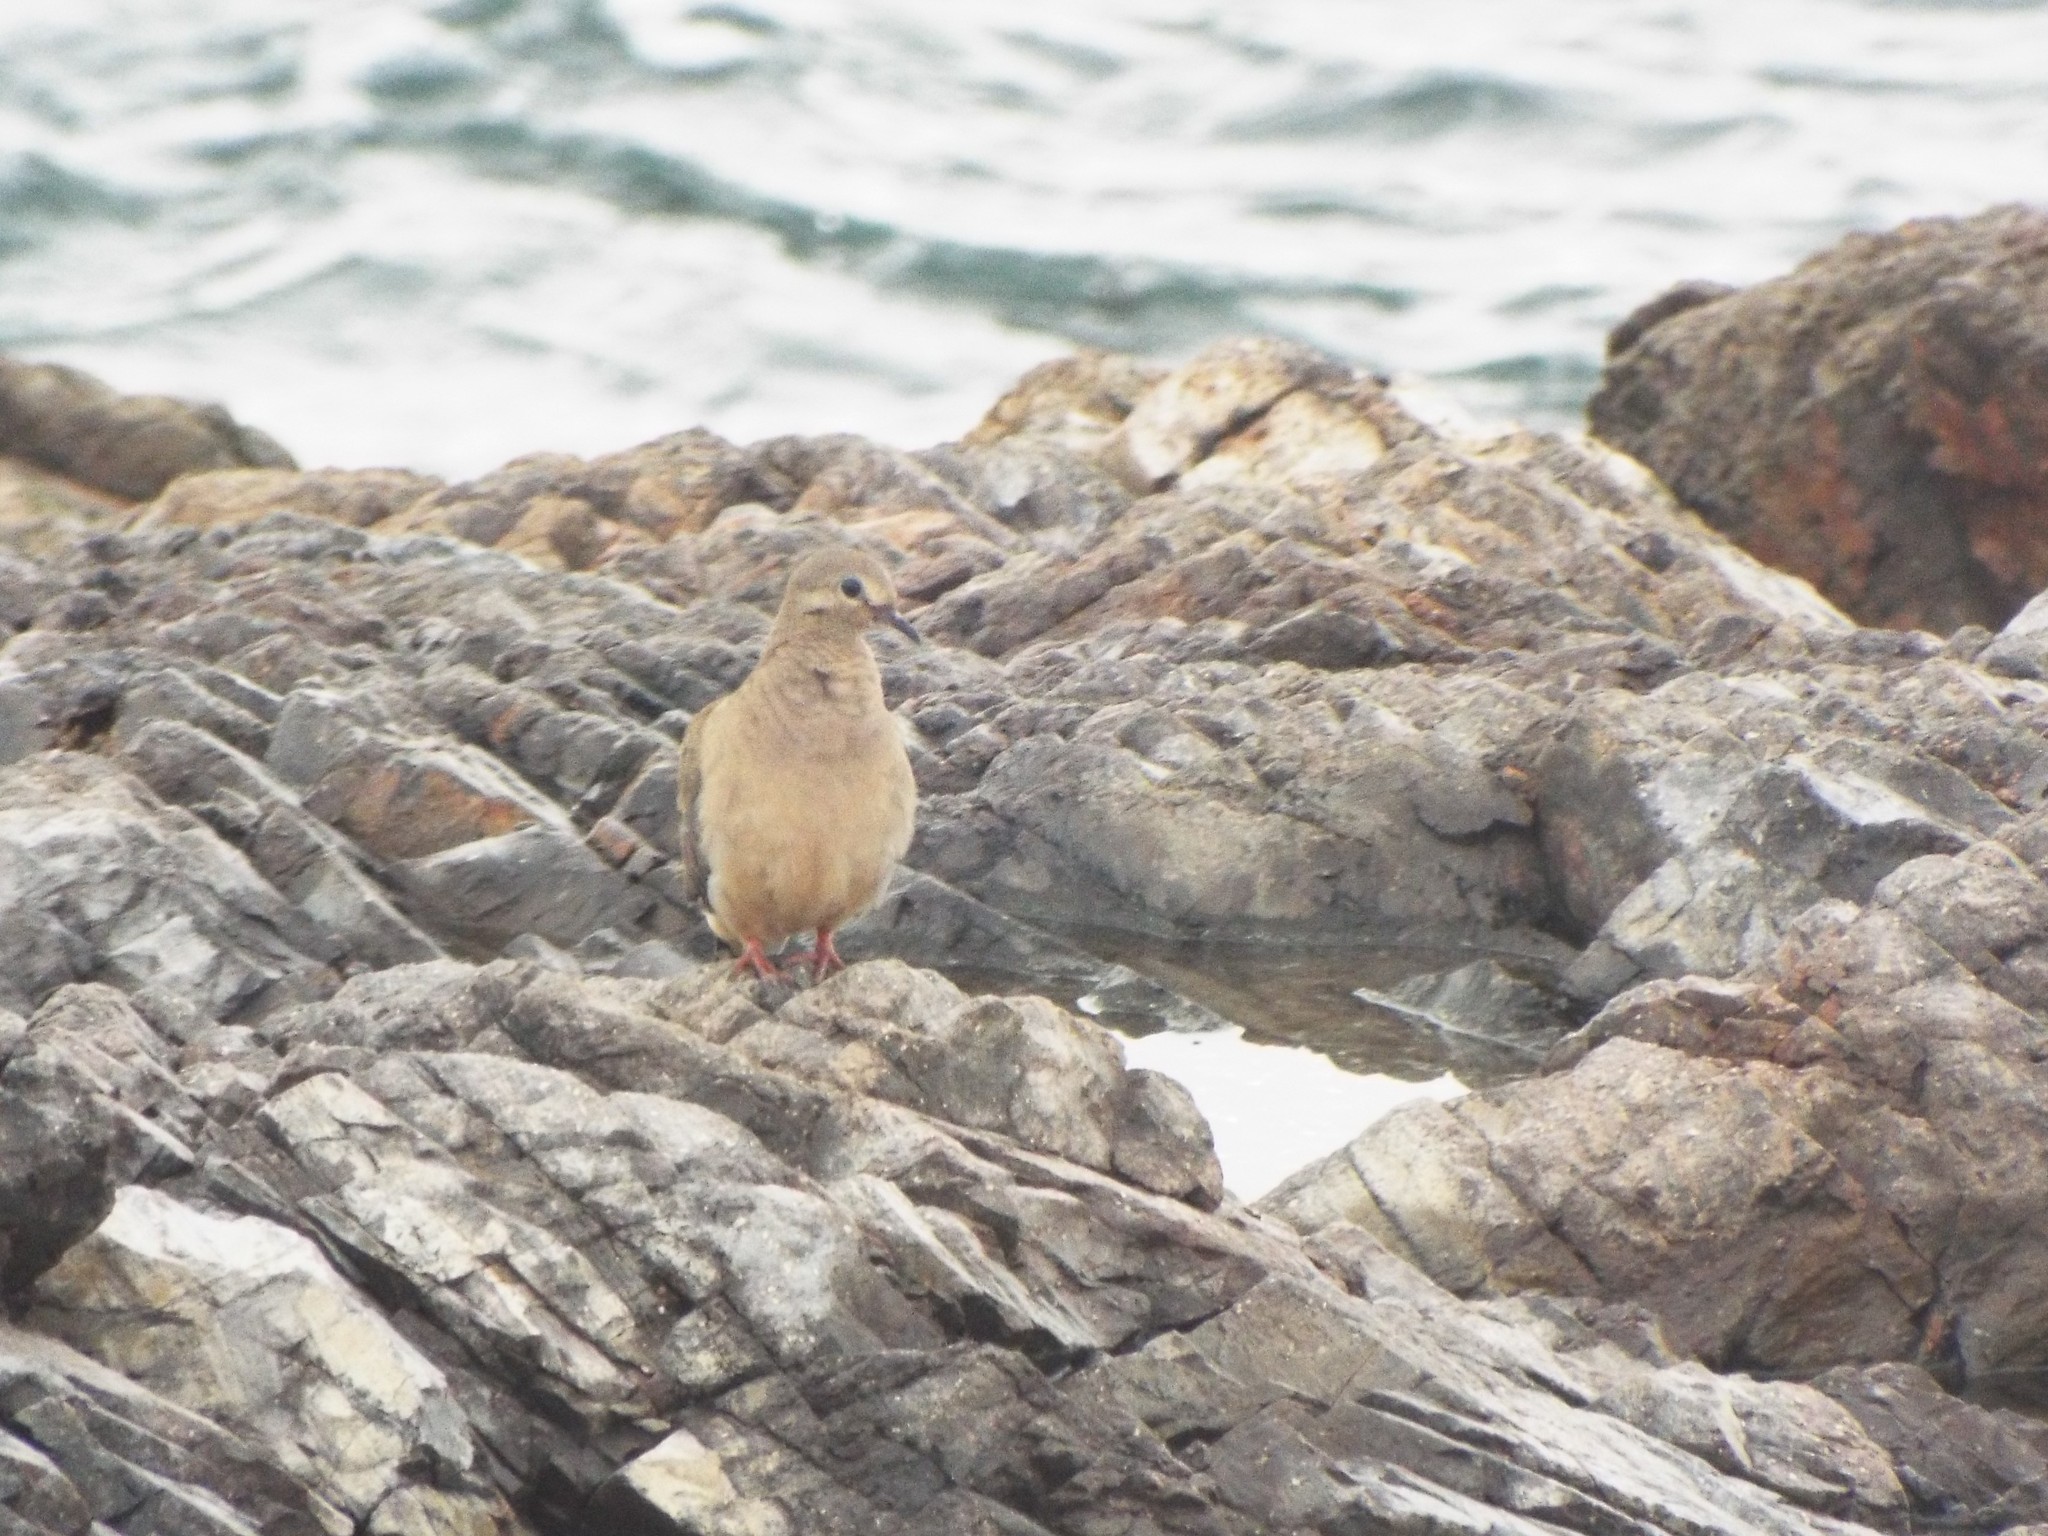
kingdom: Animalia
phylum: Chordata
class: Aves
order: Columbiformes
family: Columbidae
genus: Zenaida
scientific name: Zenaida macroura
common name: Mourning dove
